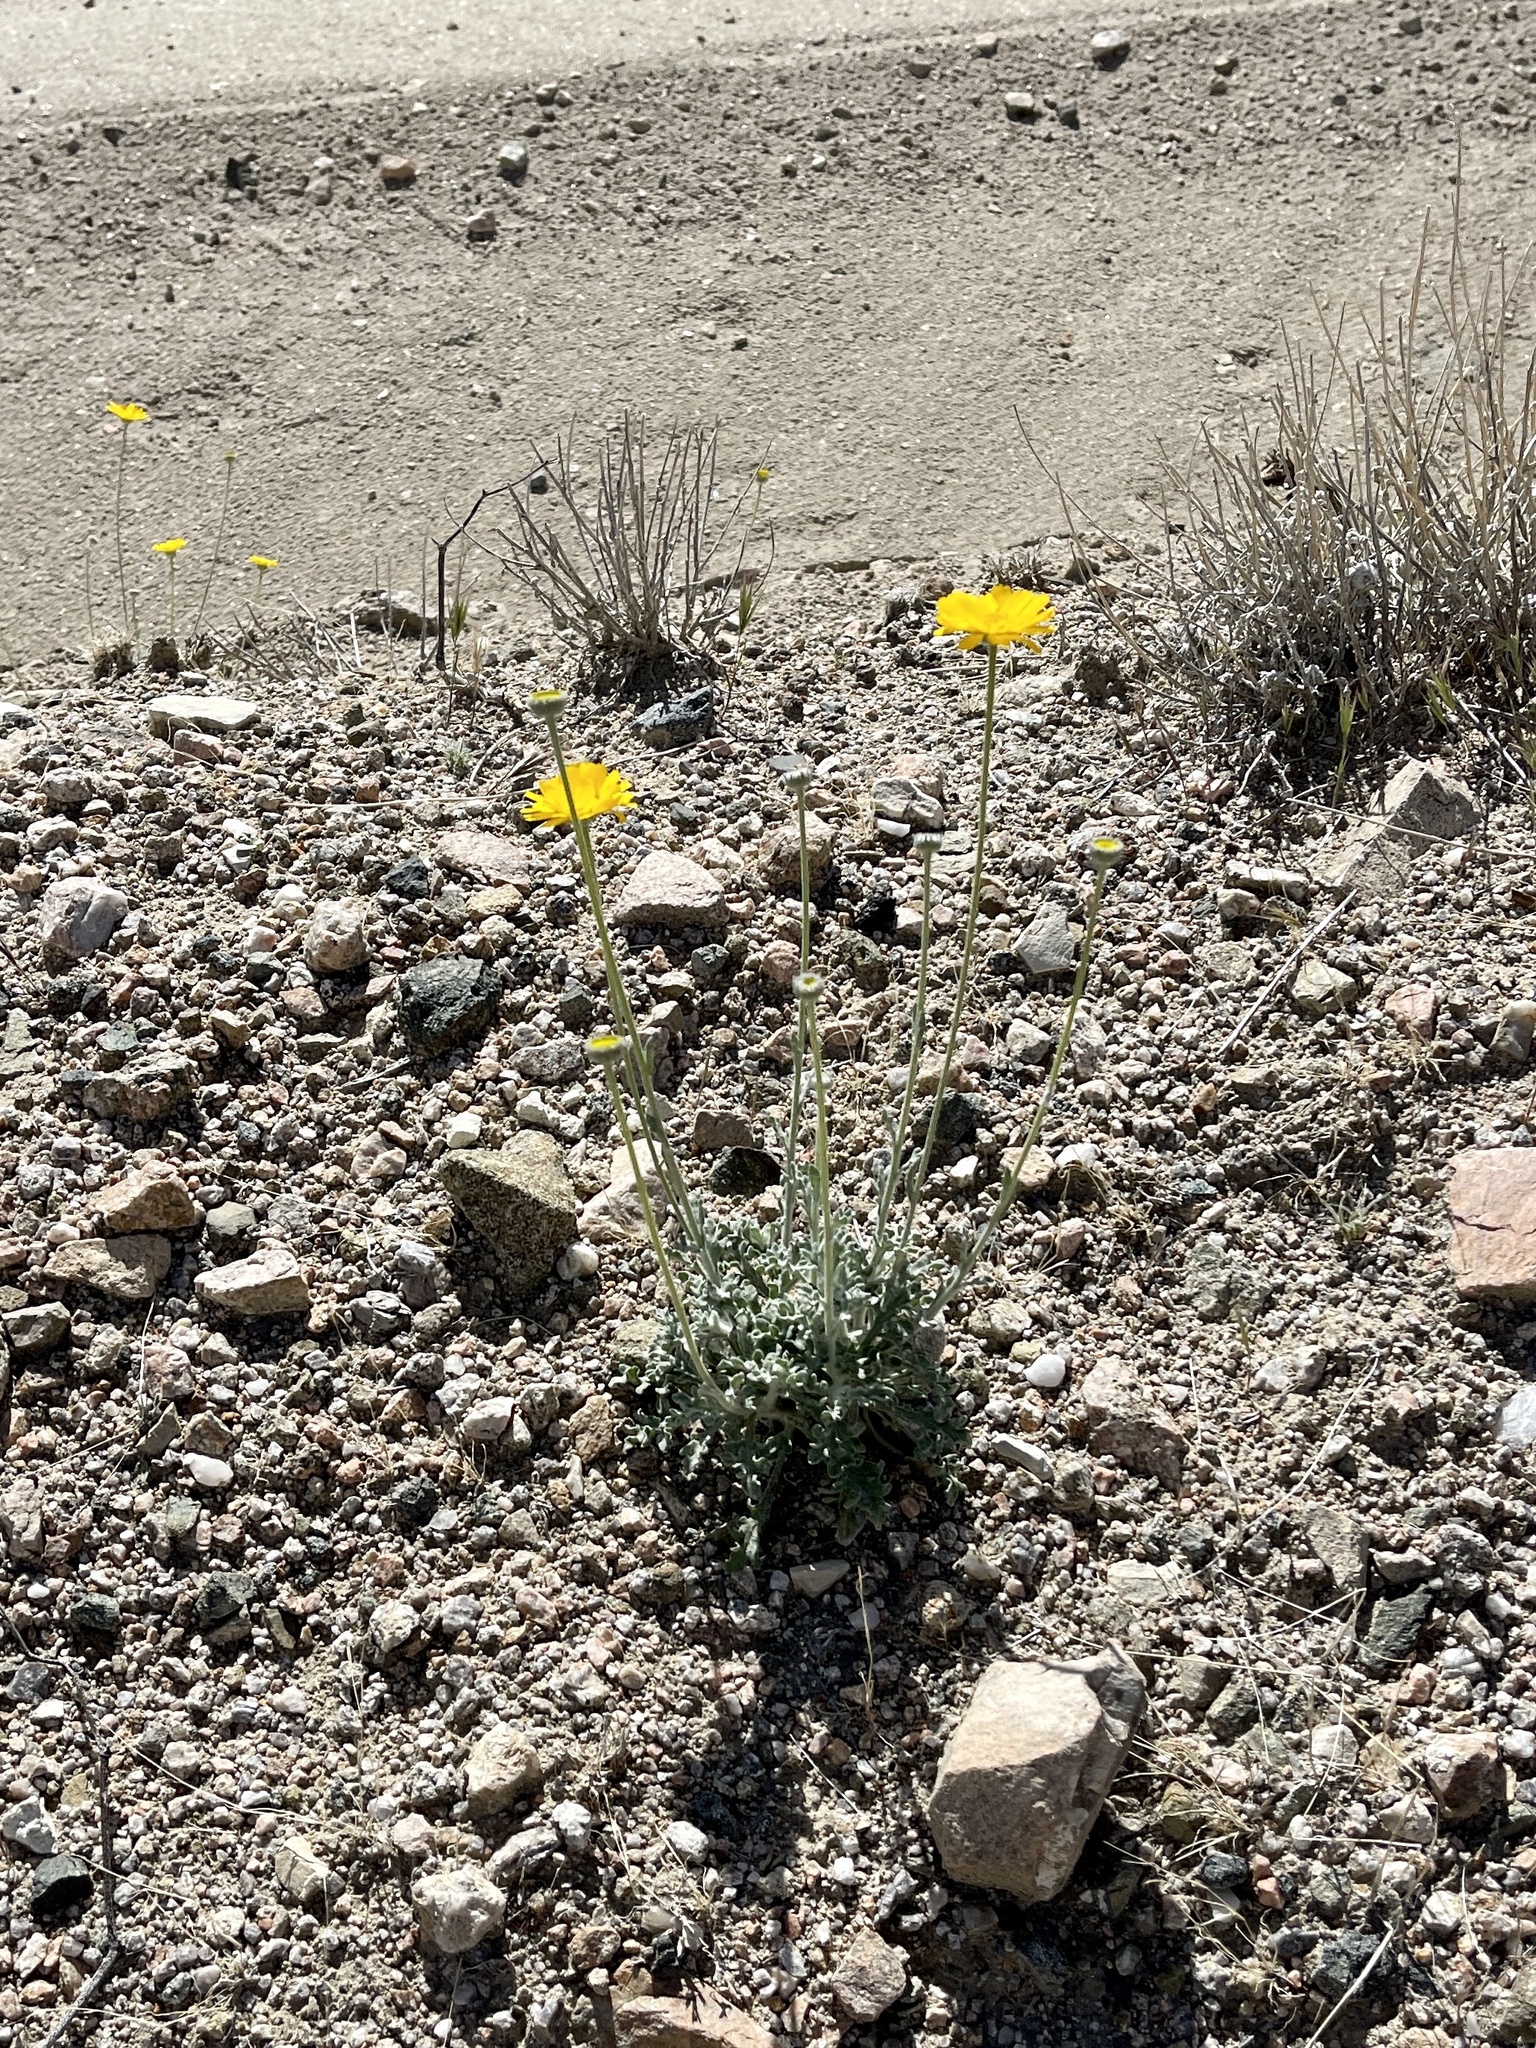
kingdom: Plantae
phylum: Tracheophyta
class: Magnoliopsida
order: Asterales
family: Asteraceae
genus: Baileya
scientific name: Baileya multiradiata
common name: Desert-marigold
